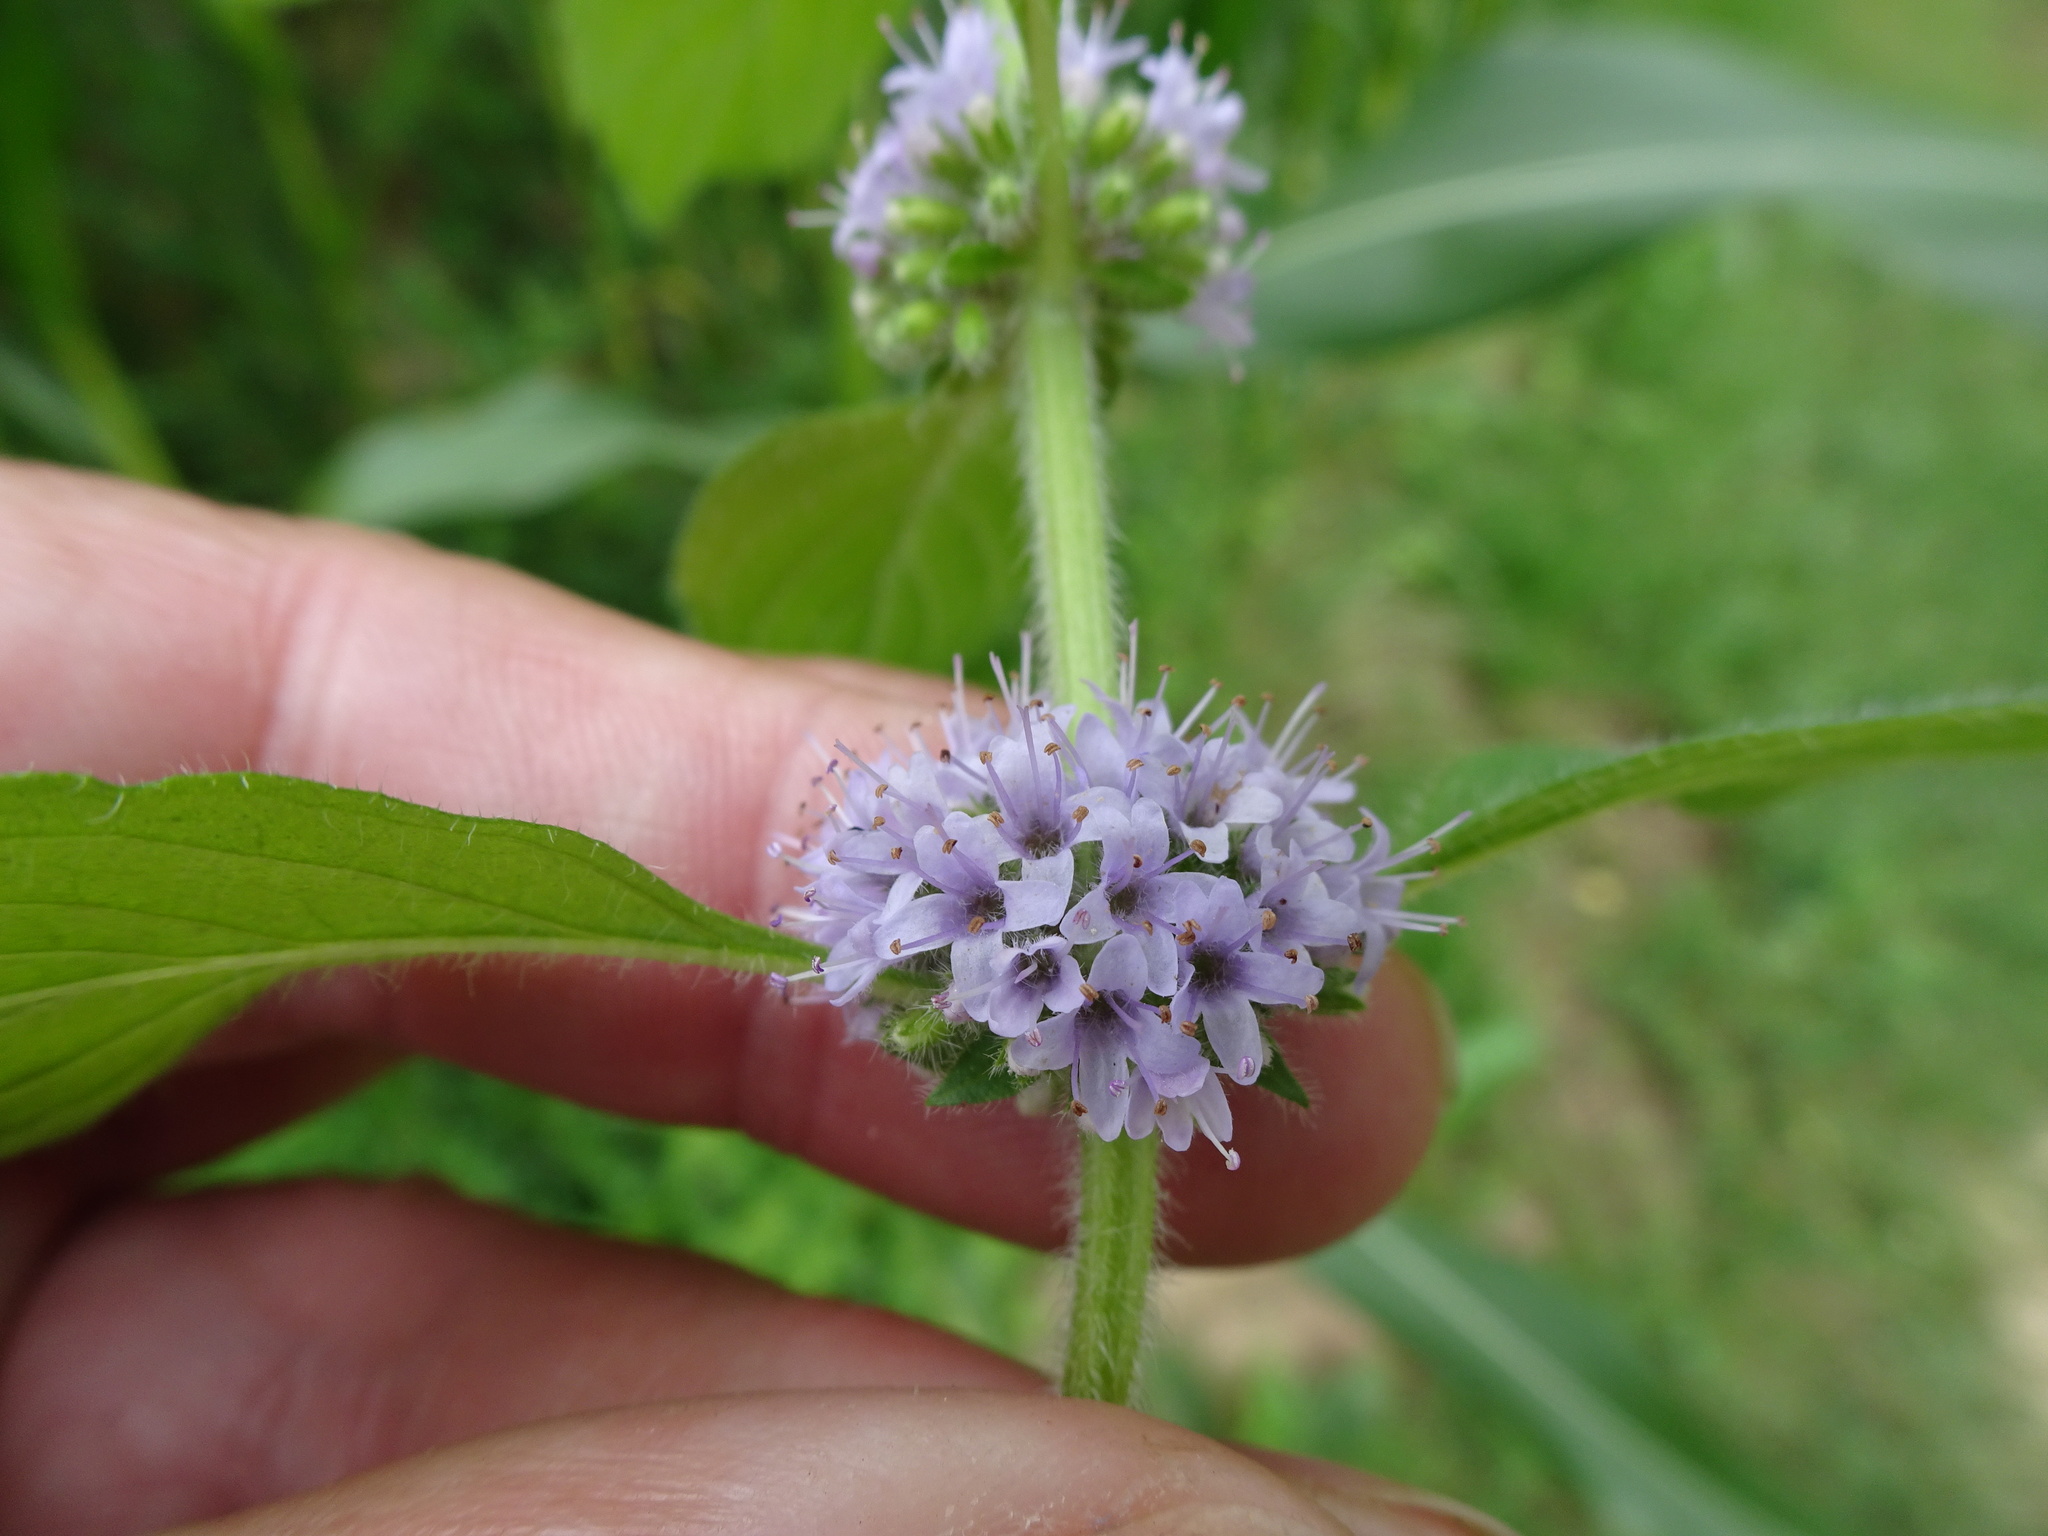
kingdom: Plantae
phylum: Tracheophyta
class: Magnoliopsida
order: Lamiales
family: Lamiaceae
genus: Mentha
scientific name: Mentha arvensis
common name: Corn mint
